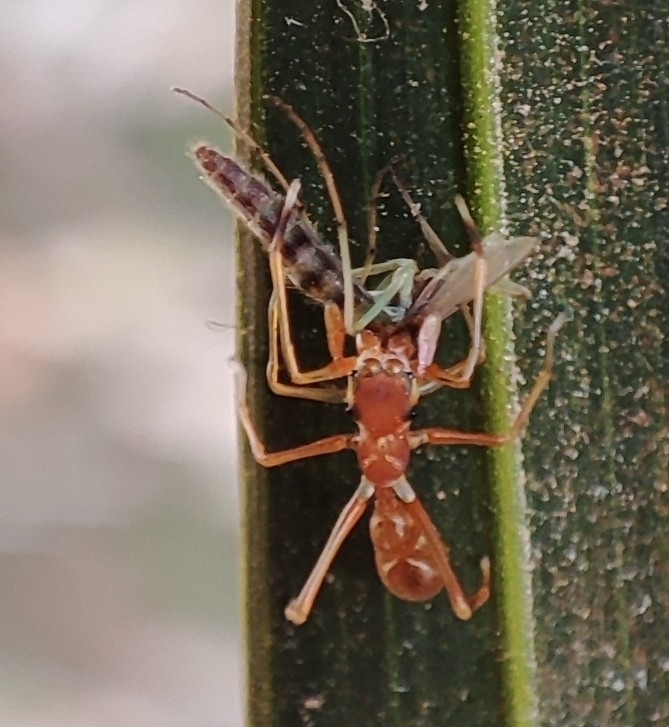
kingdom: Animalia
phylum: Arthropoda
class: Arachnida
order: Araneae
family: Salticidae
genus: Myrmaplata
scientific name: Myrmaplata plataleoides
